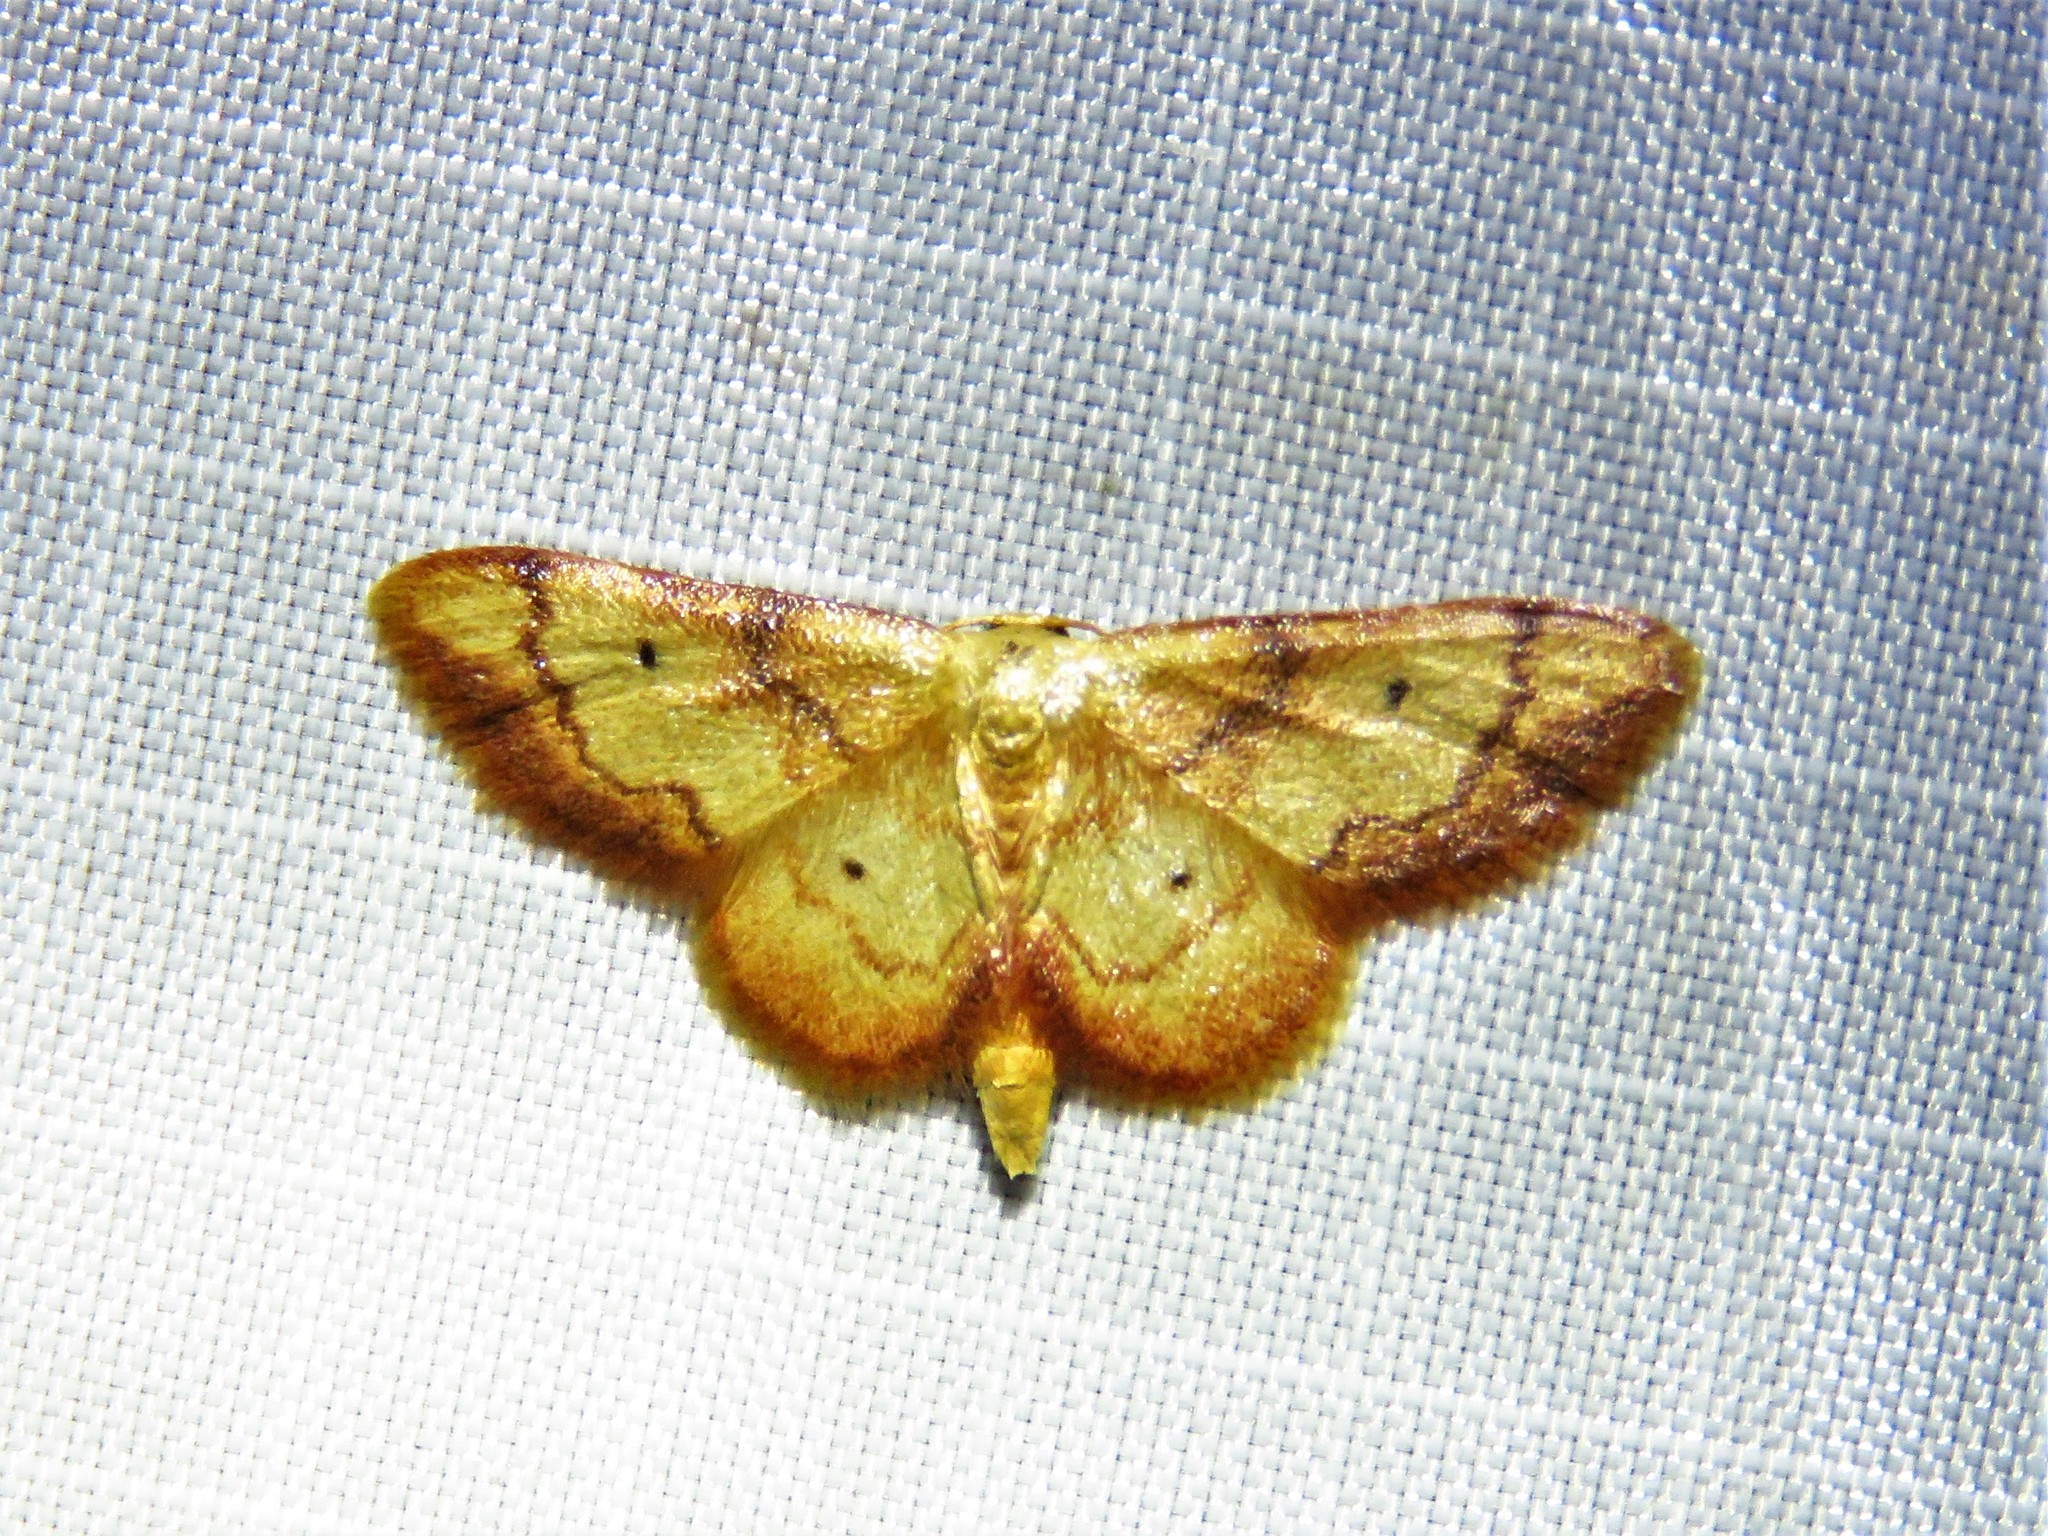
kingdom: Animalia
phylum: Arthropoda
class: Insecta
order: Lepidoptera
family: Geometridae
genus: Idaea
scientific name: Idaea demissaria
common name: Red-bordered wave
